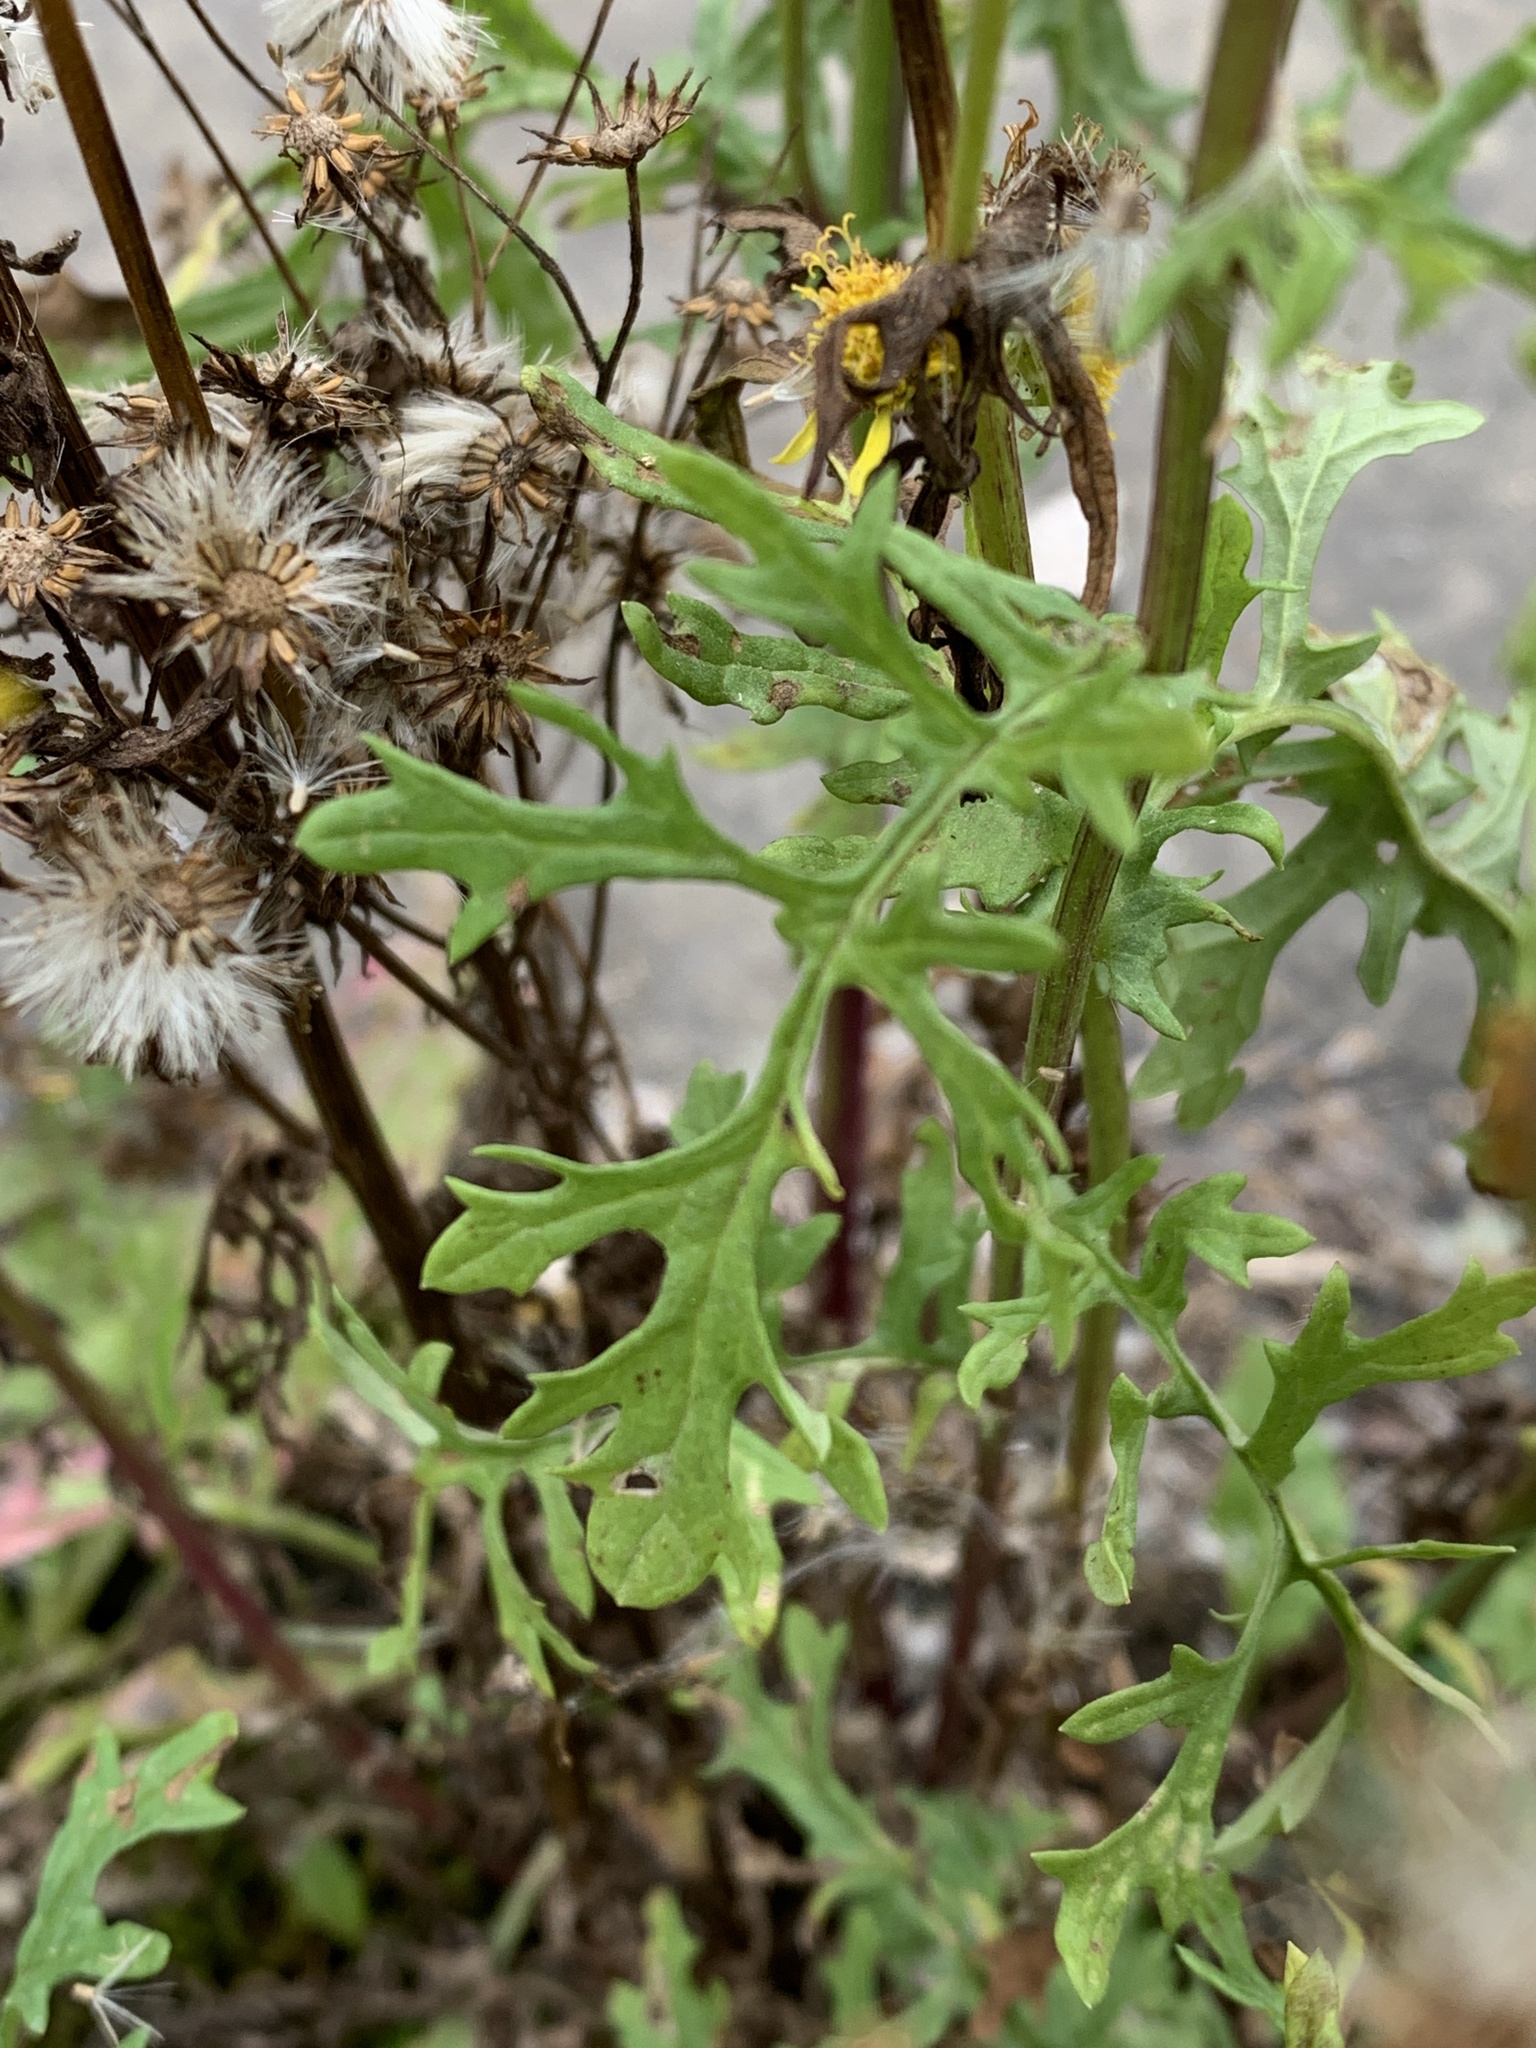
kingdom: Plantae
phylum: Tracheophyta
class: Magnoliopsida
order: Asterales
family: Asteraceae
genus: Jacobaea
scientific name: Jacobaea vulgaris
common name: Stinking willie
